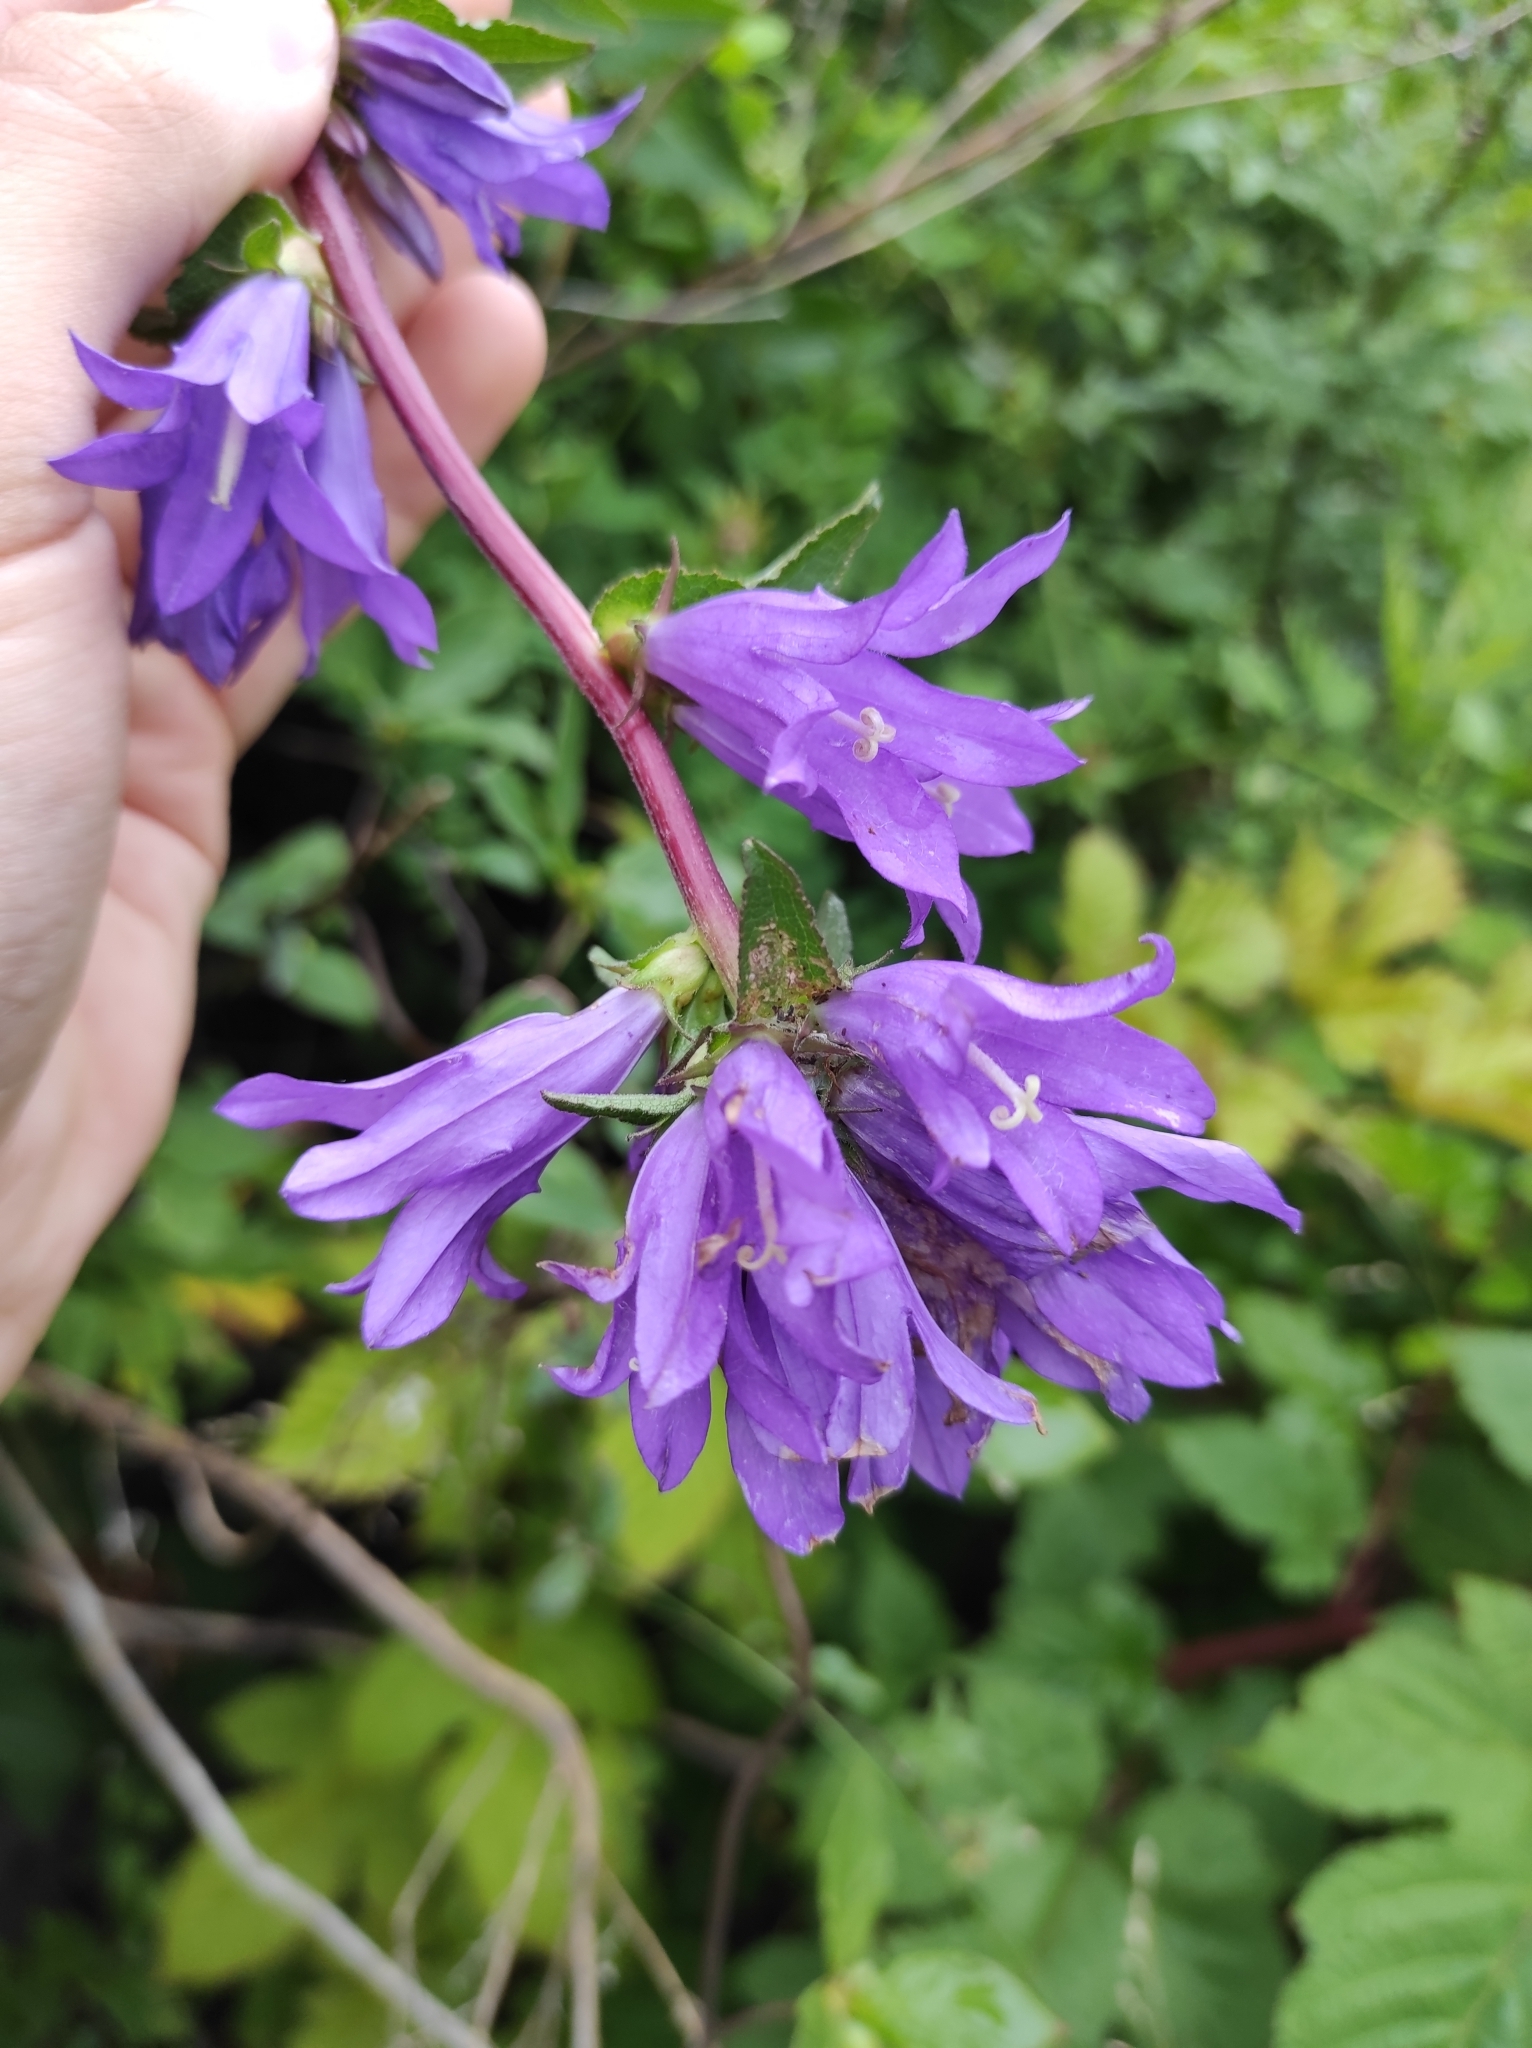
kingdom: Plantae
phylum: Tracheophyta
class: Magnoliopsida
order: Asterales
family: Campanulaceae
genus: Campanula
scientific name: Campanula glomerata
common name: Clustered bellflower
